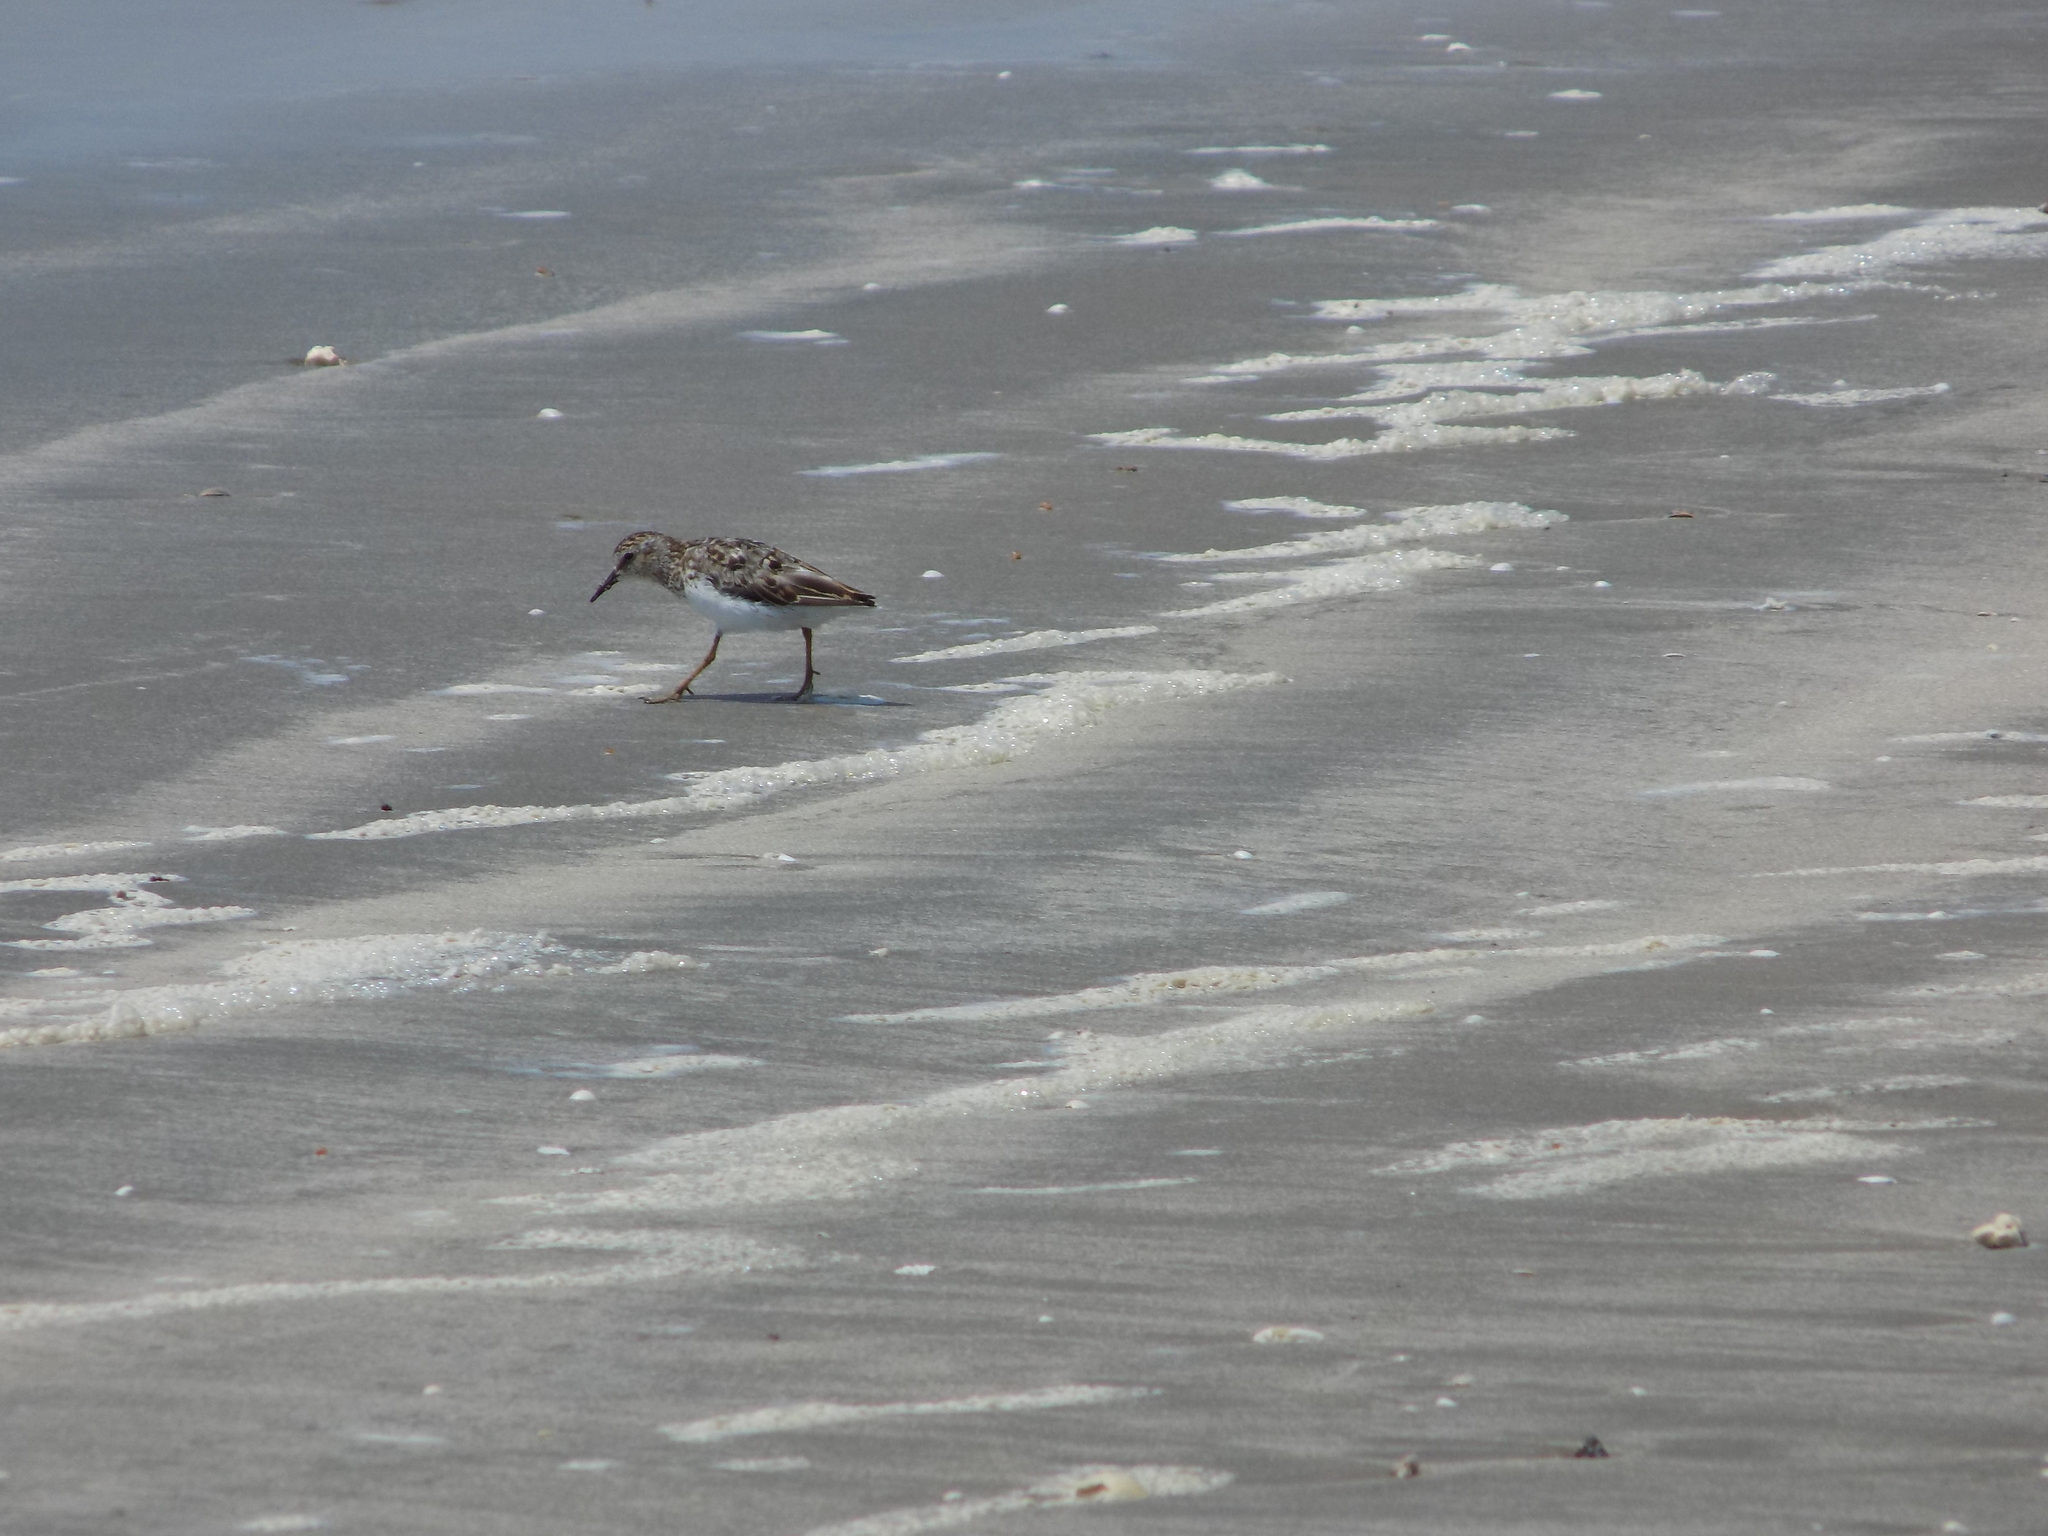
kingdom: Animalia
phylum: Chordata
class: Aves
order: Charadriiformes
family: Scolopacidae
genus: Calidris
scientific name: Calidris minutilla
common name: Least sandpiper
